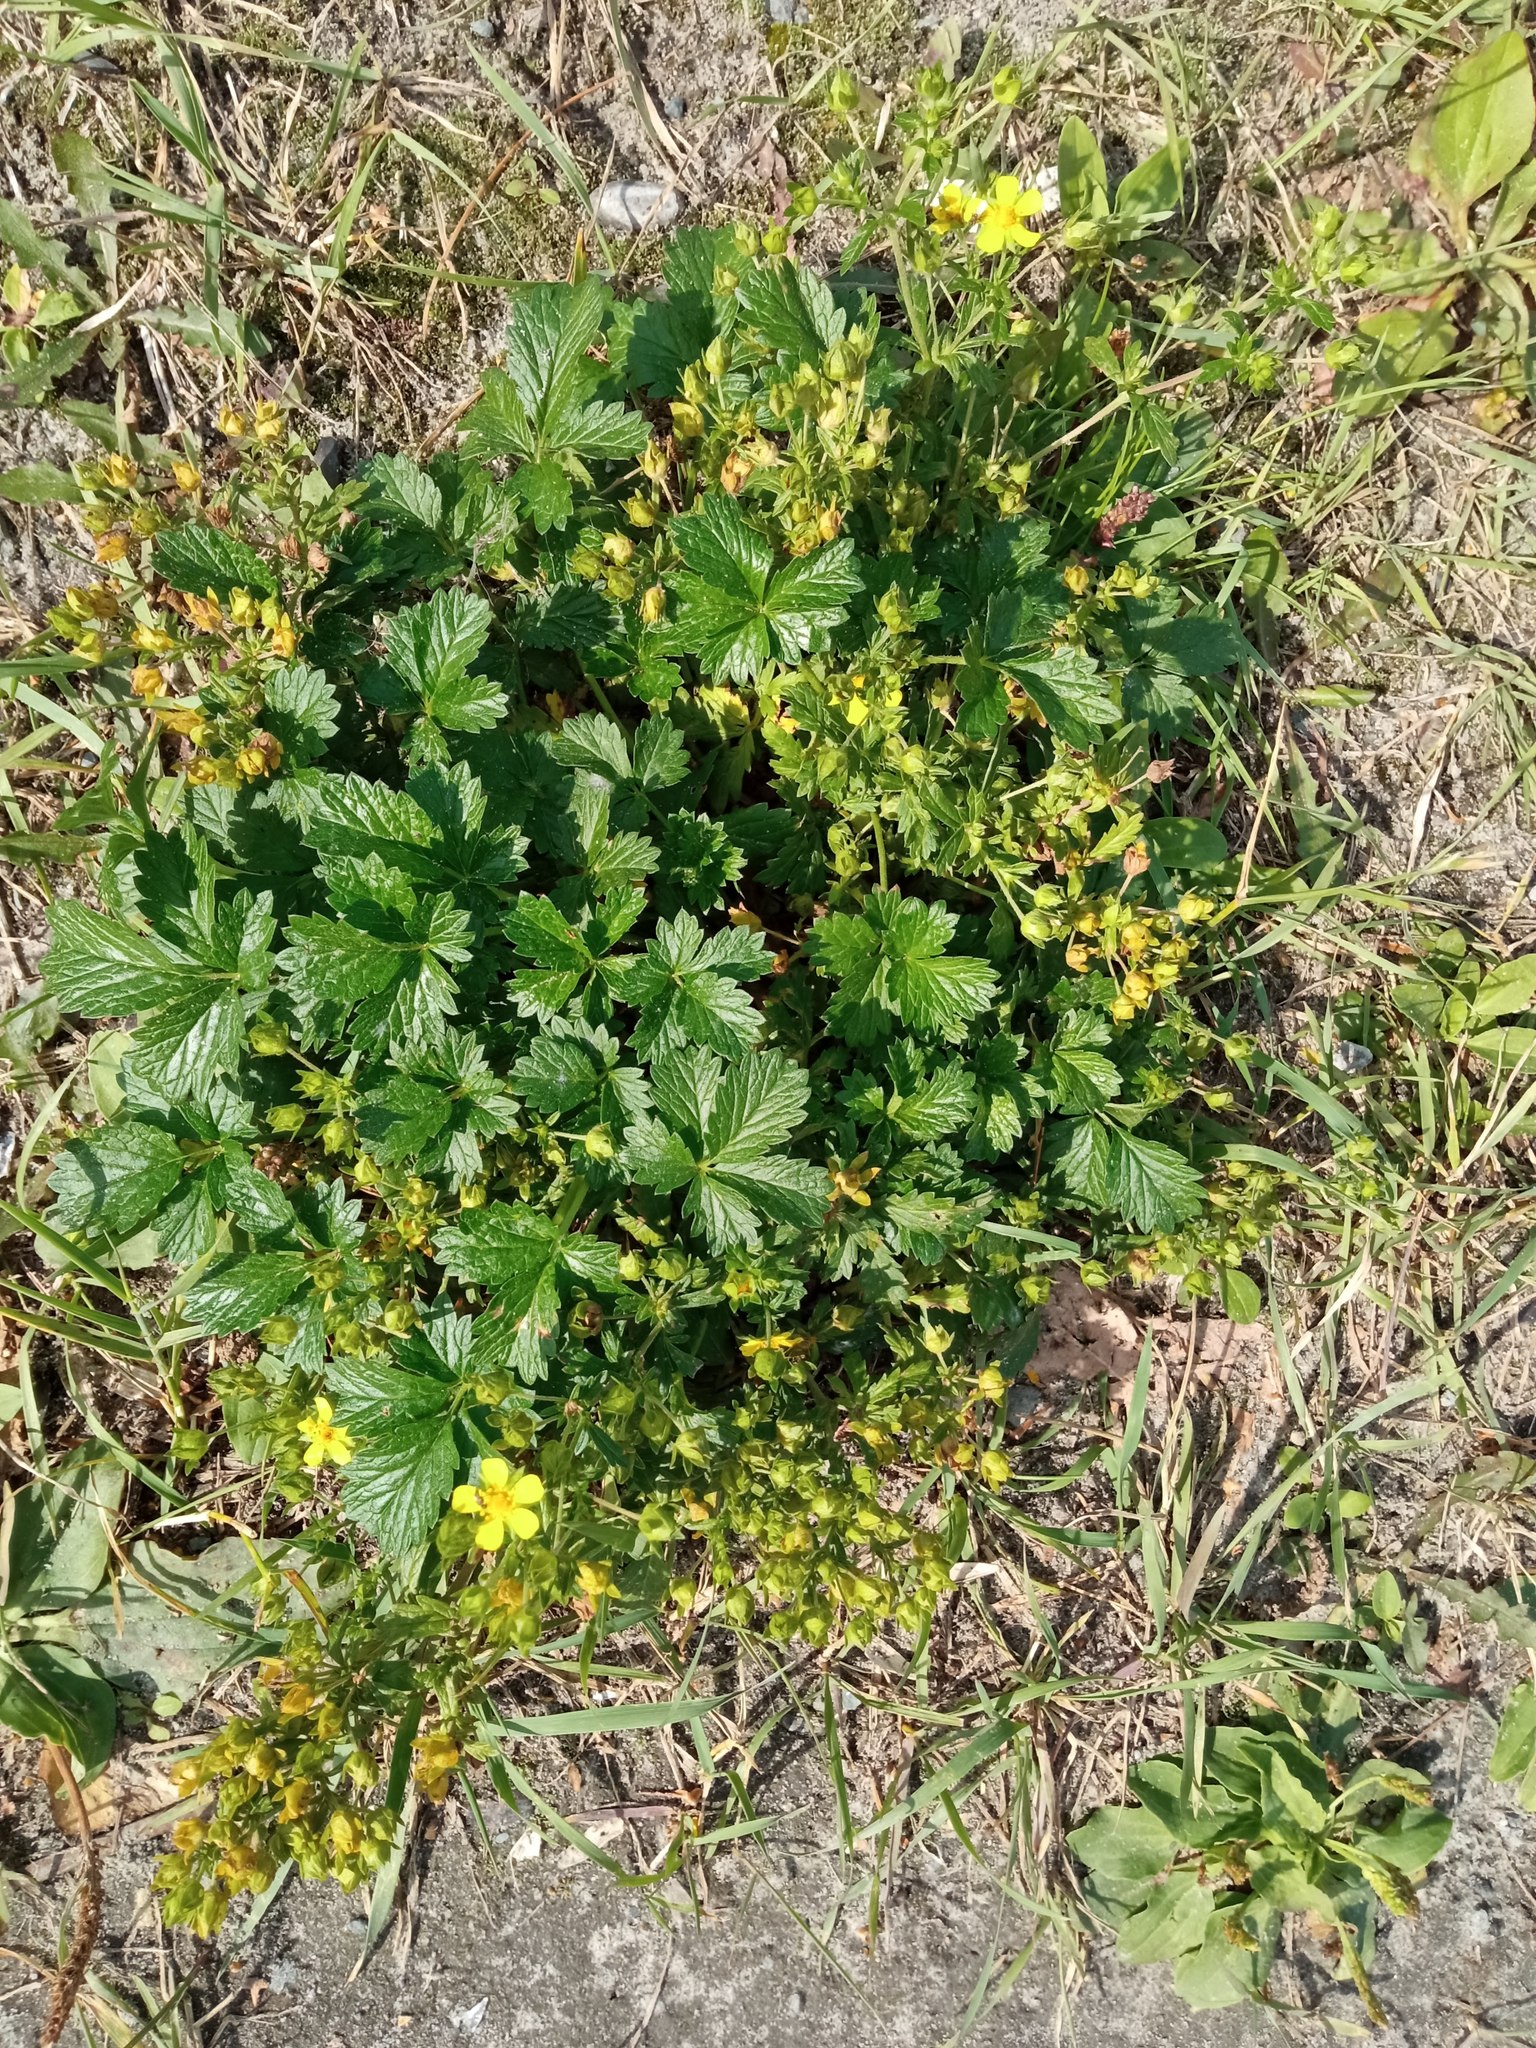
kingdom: Plantae
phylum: Tracheophyta
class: Magnoliopsida
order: Rosales
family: Rosaceae
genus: Potentilla
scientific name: Potentilla intermedia
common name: Downy cinquefoil
